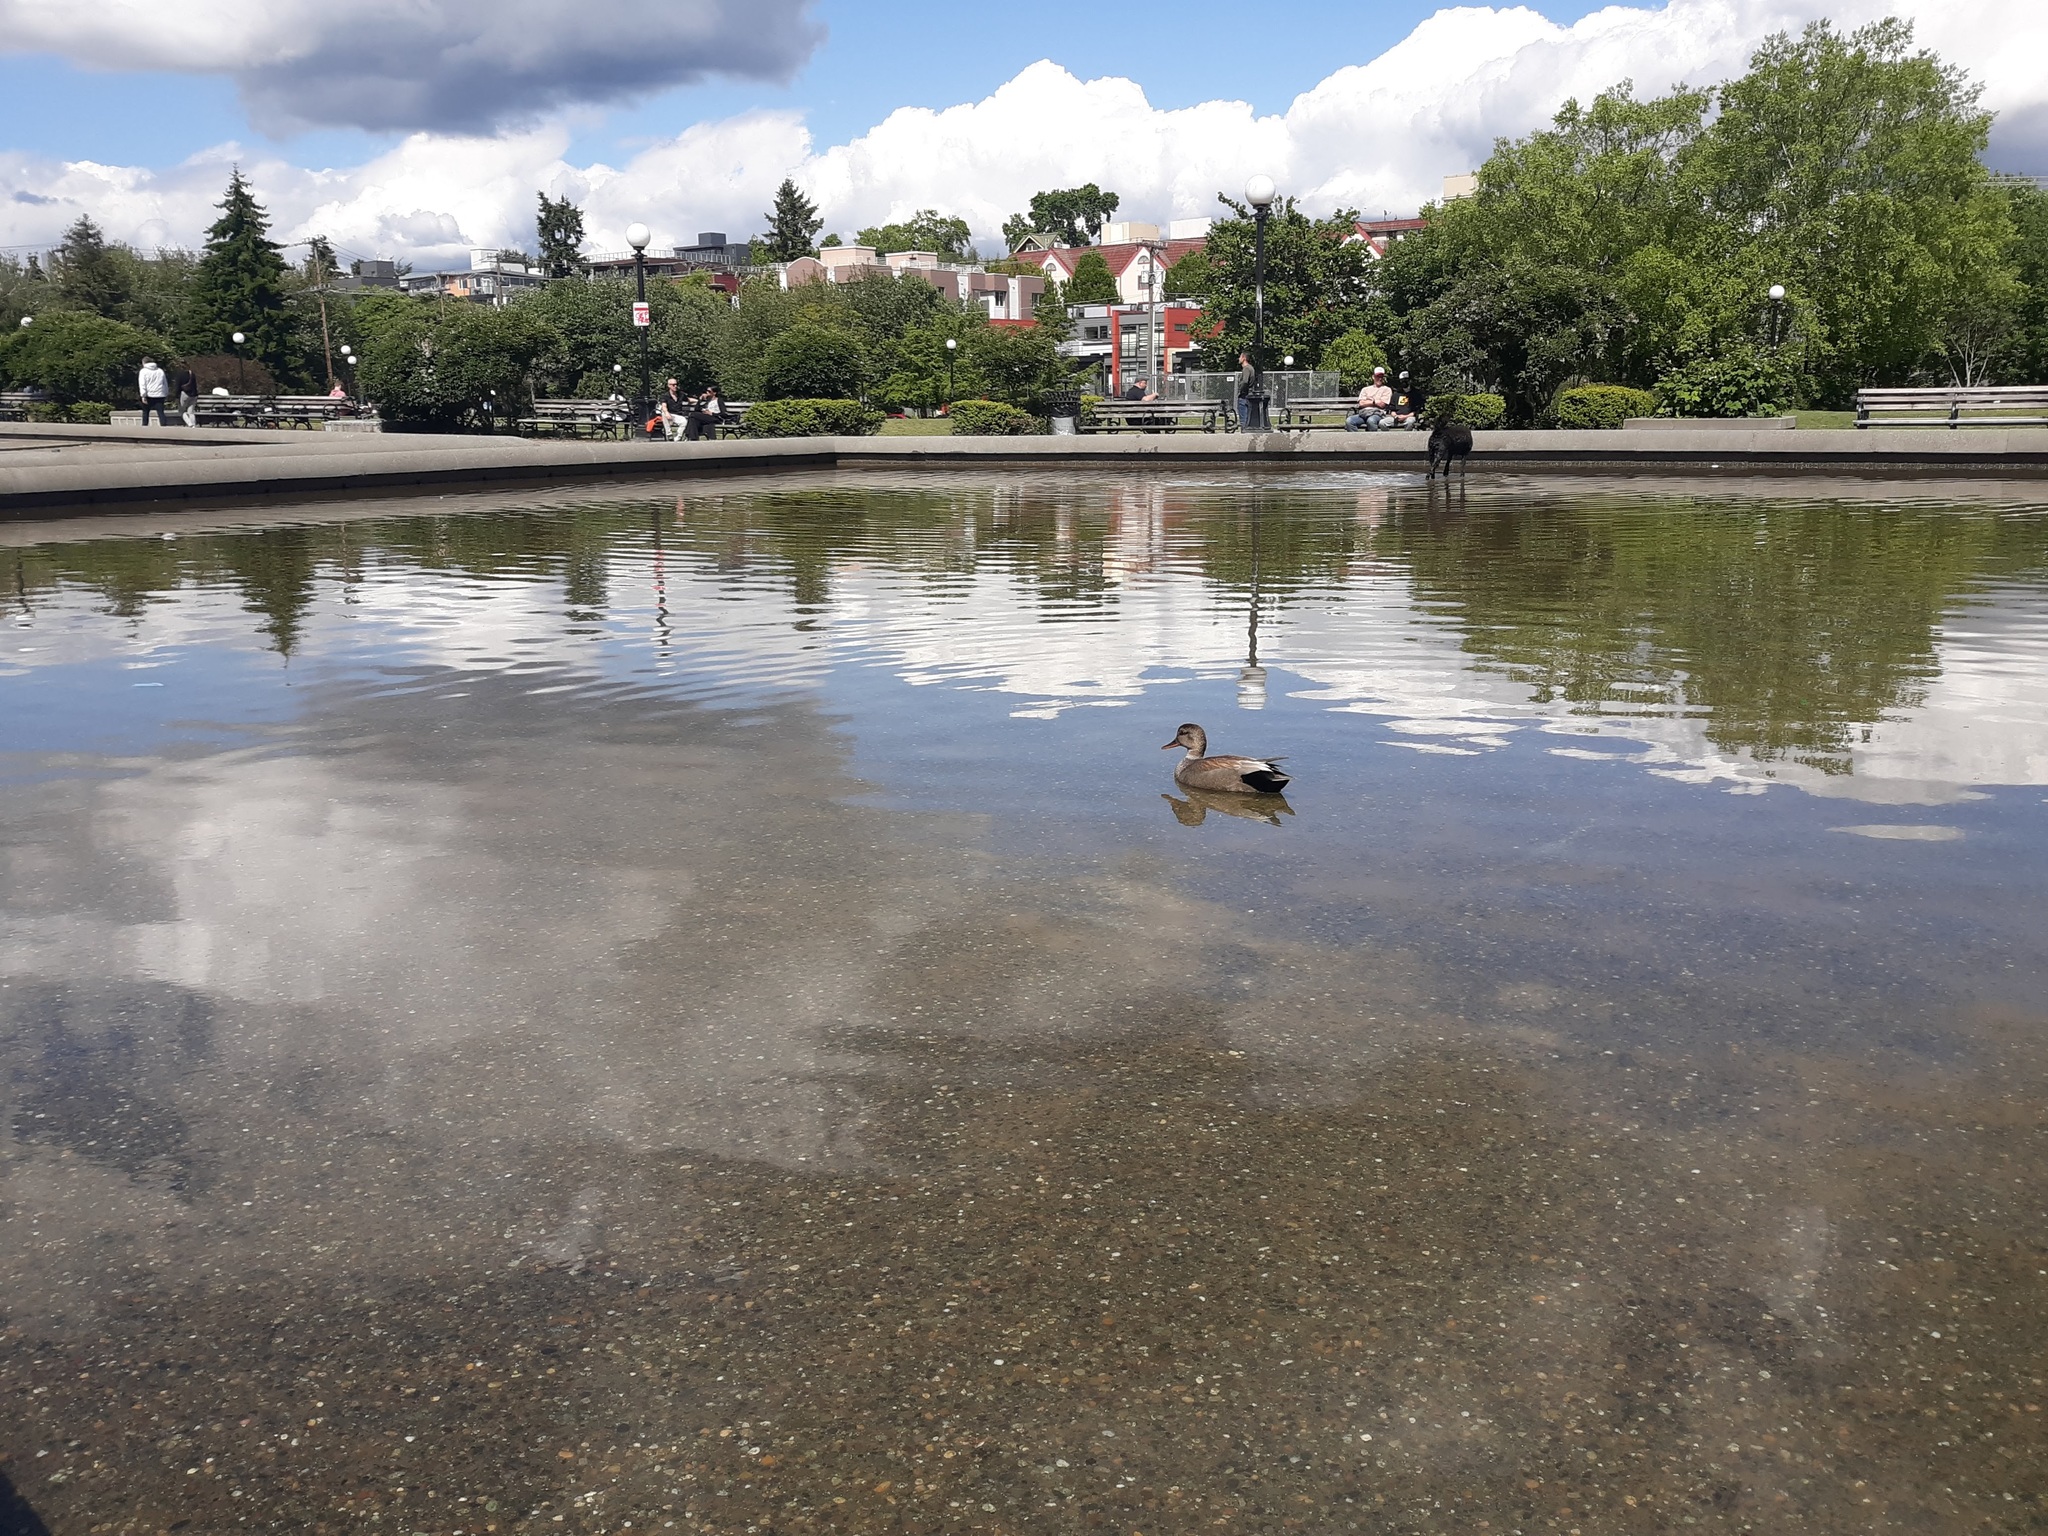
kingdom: Animalia
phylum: Chordata
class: Aves
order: Anseriformes
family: Anatidae
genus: Mareca
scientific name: Mareca strepera
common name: Gadwall
